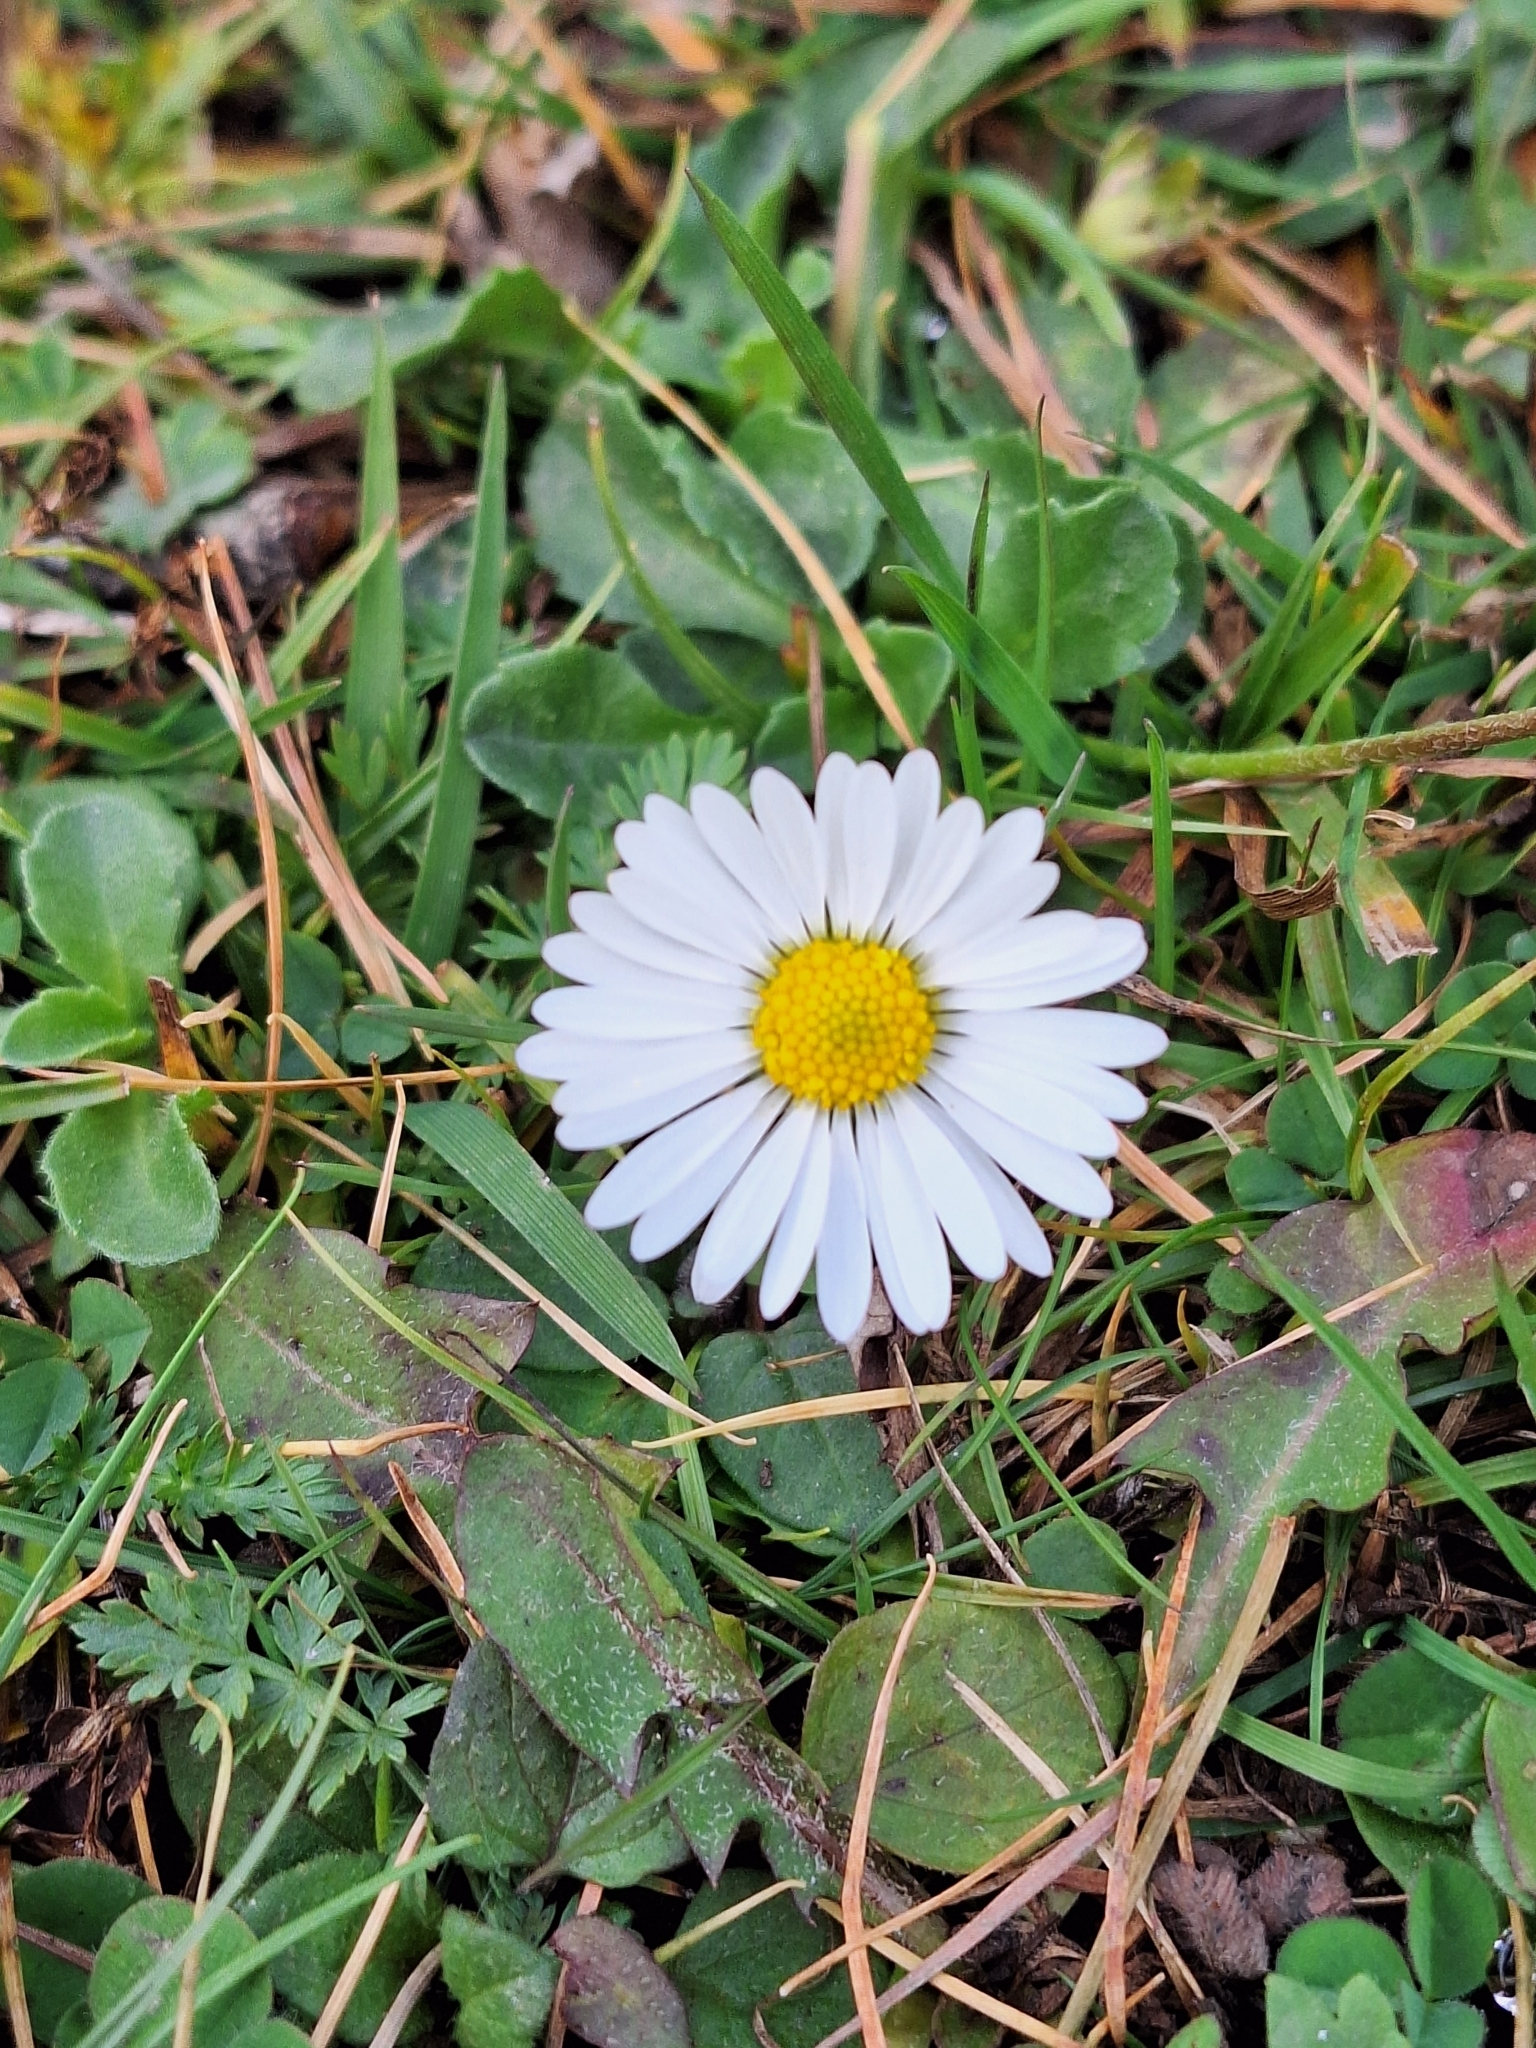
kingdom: Plantae
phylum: Tracheophyta
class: Magnoliopsida
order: Asterales
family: Asteraceae
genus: Bellis
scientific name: Bellis perennis
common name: Lawndaisy
